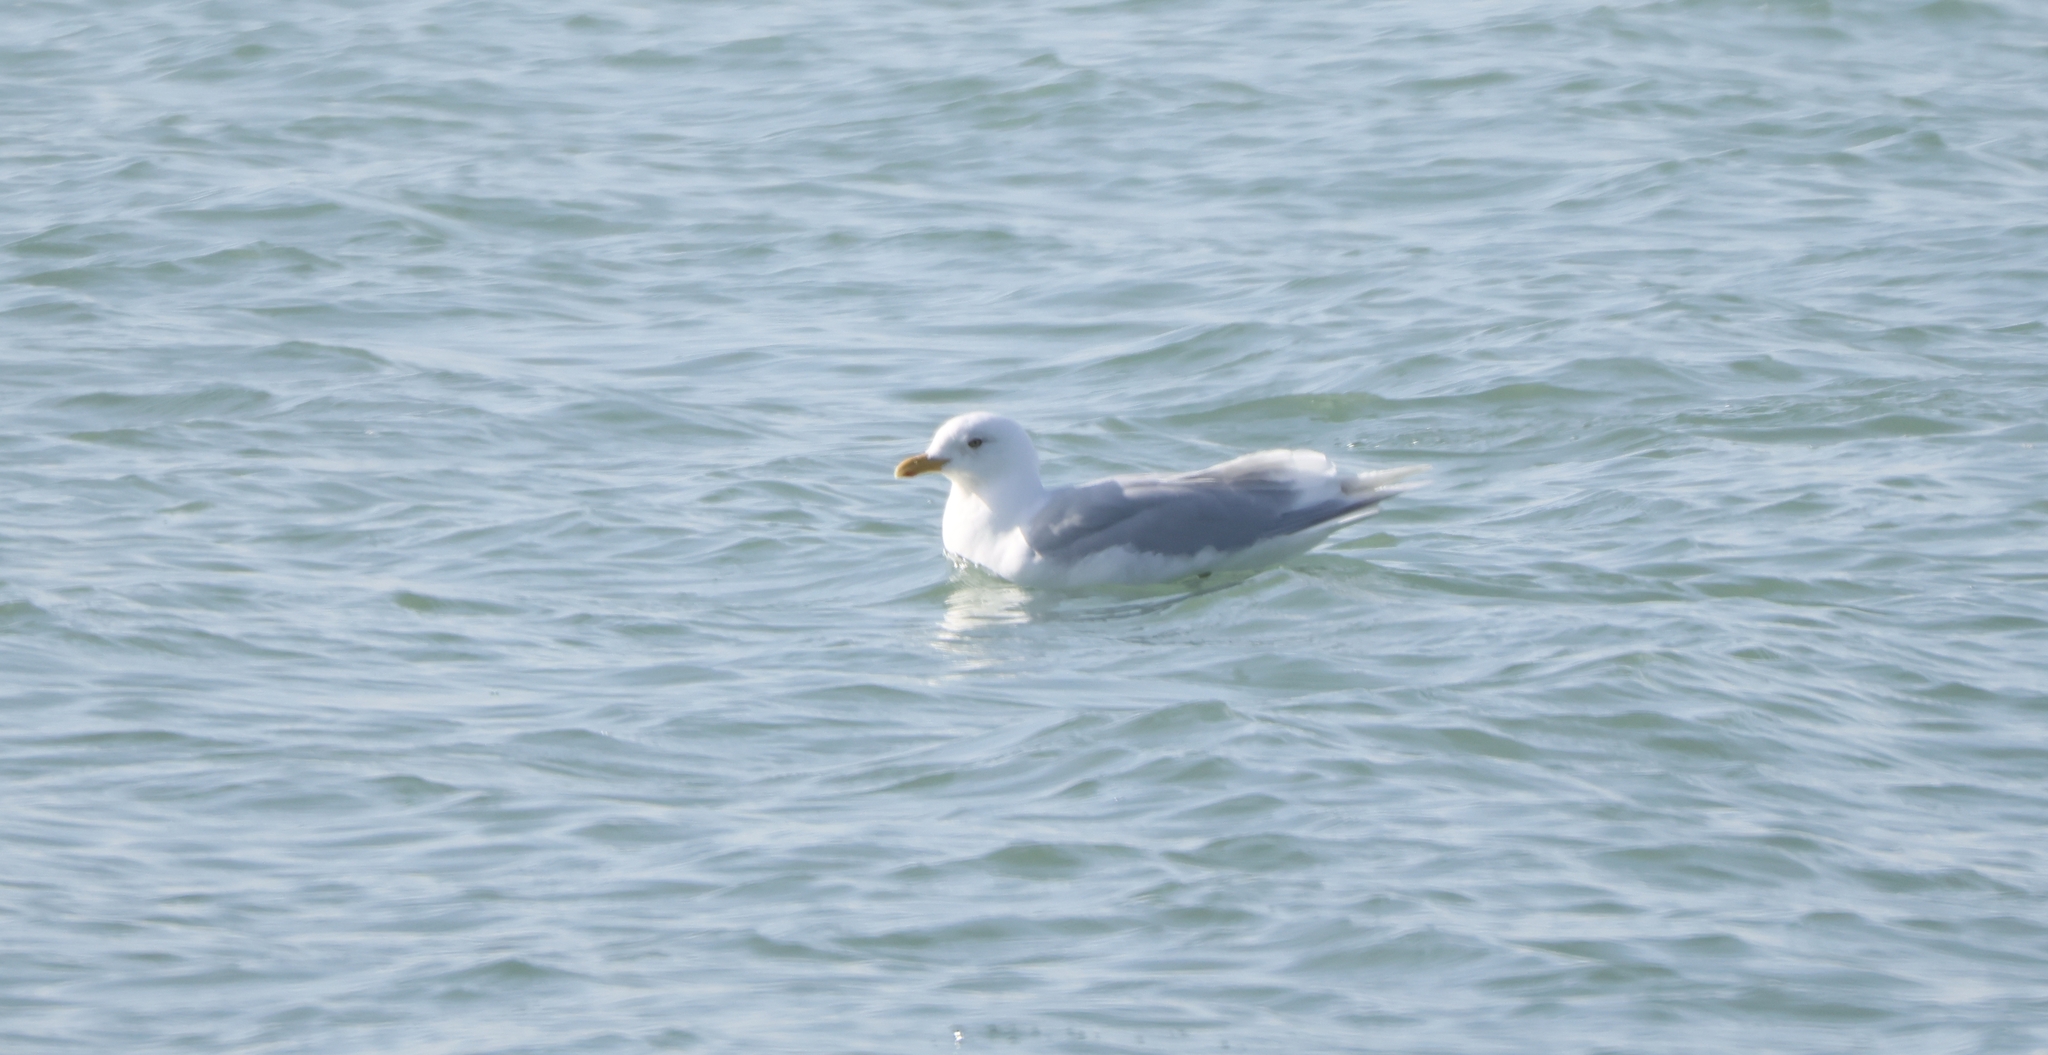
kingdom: Animalia
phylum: Chordata
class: Aves
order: Charadriiformes
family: Laridae
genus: Larus
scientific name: Larus glaucoides
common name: Iceland gull
